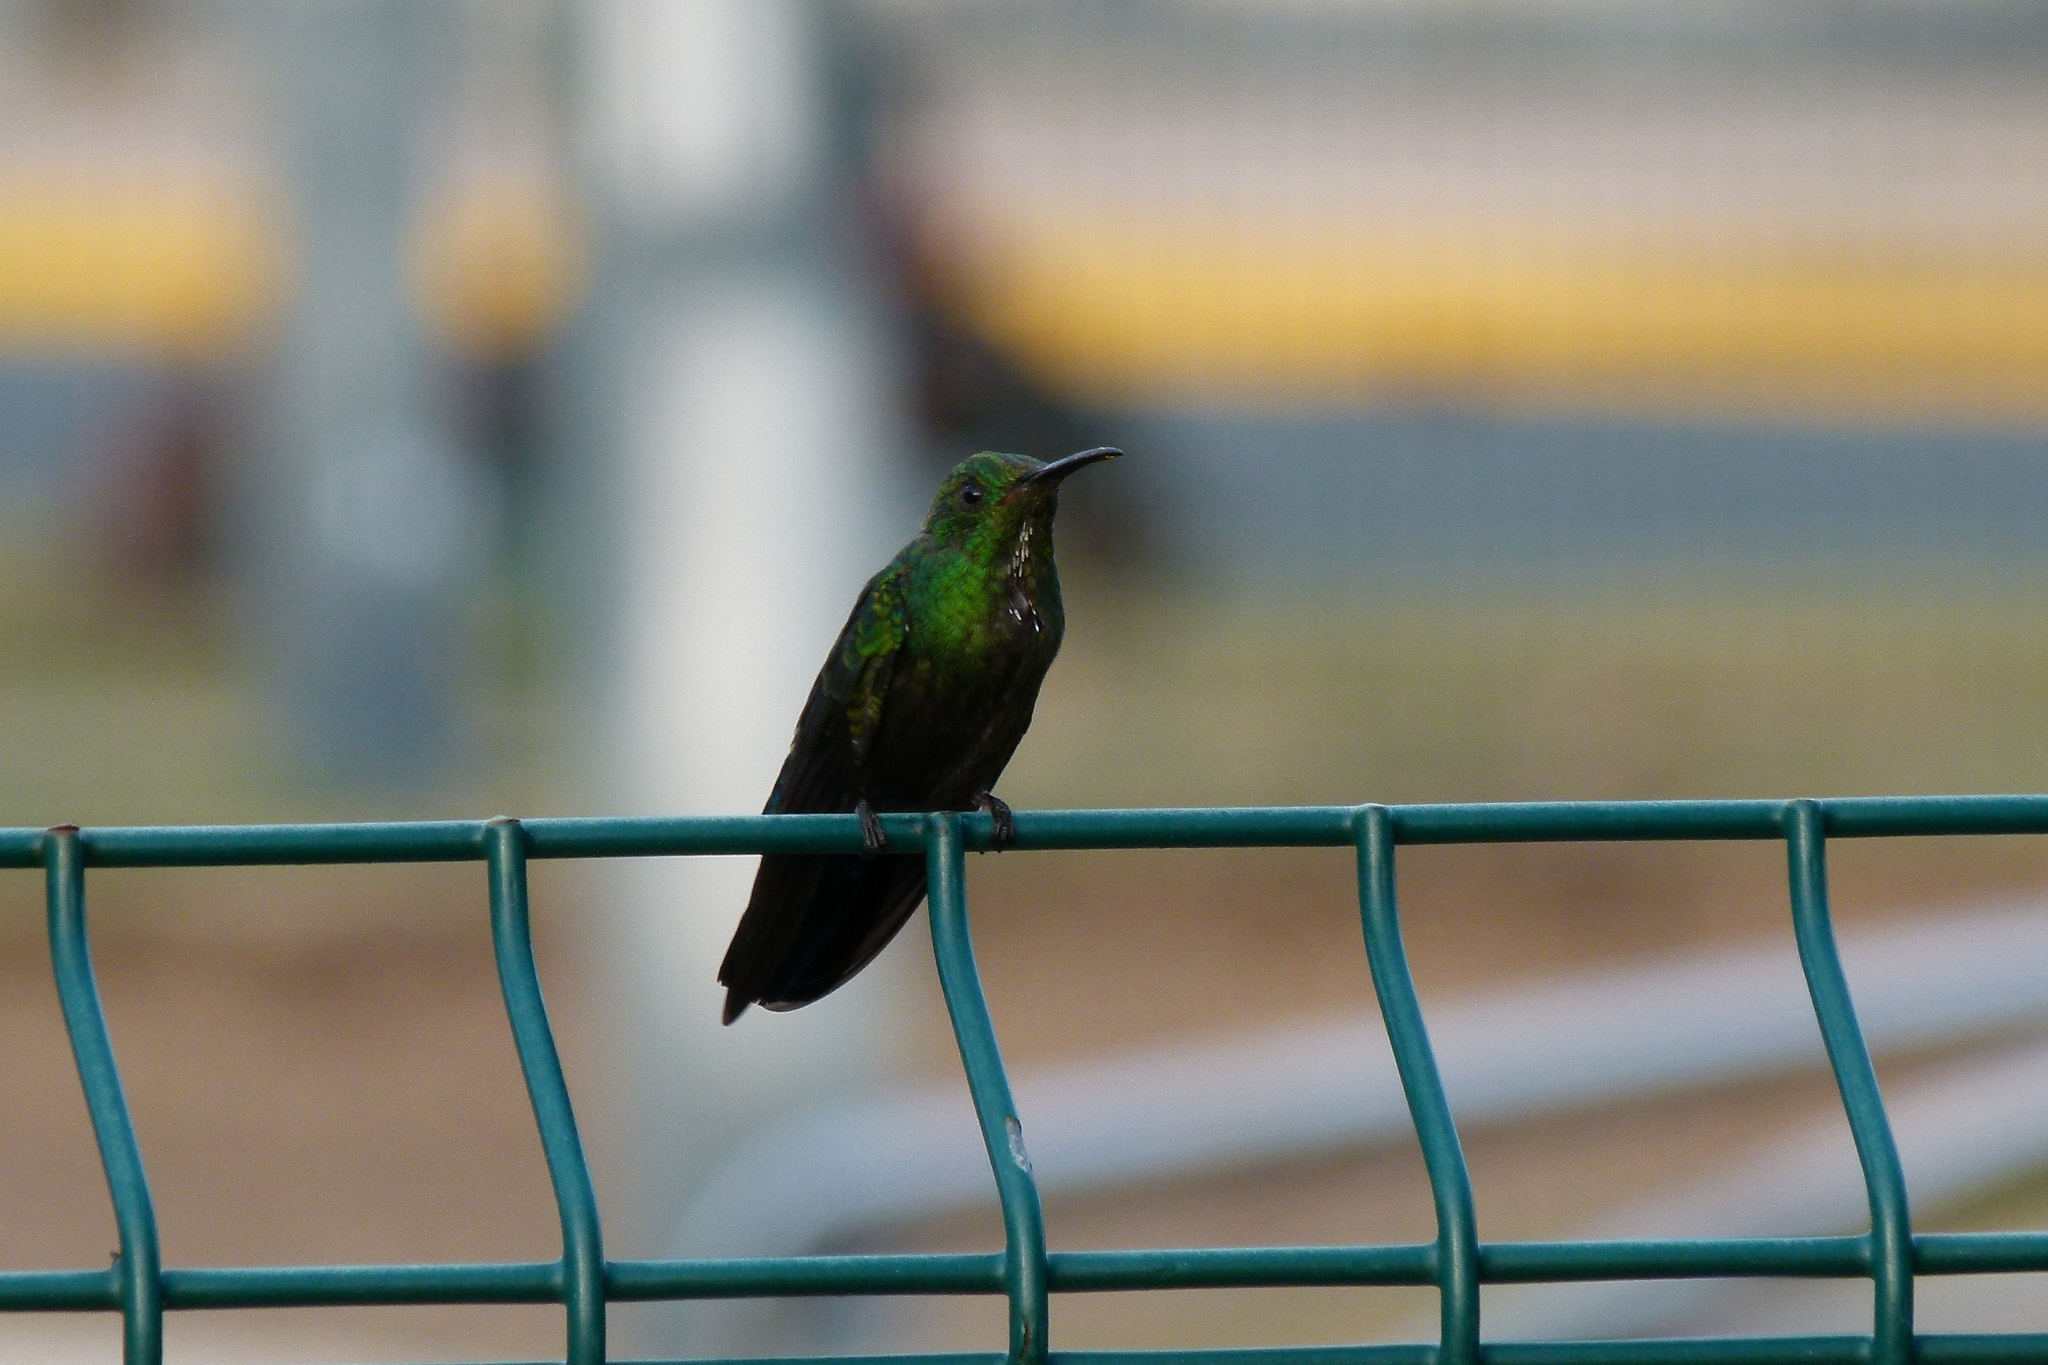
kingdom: Animalia
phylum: Chordata
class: Aves
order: Apodiformes
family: Trochilidae
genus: Anthracothorax
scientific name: Anthracothorax dominicus
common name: Antillean mango
